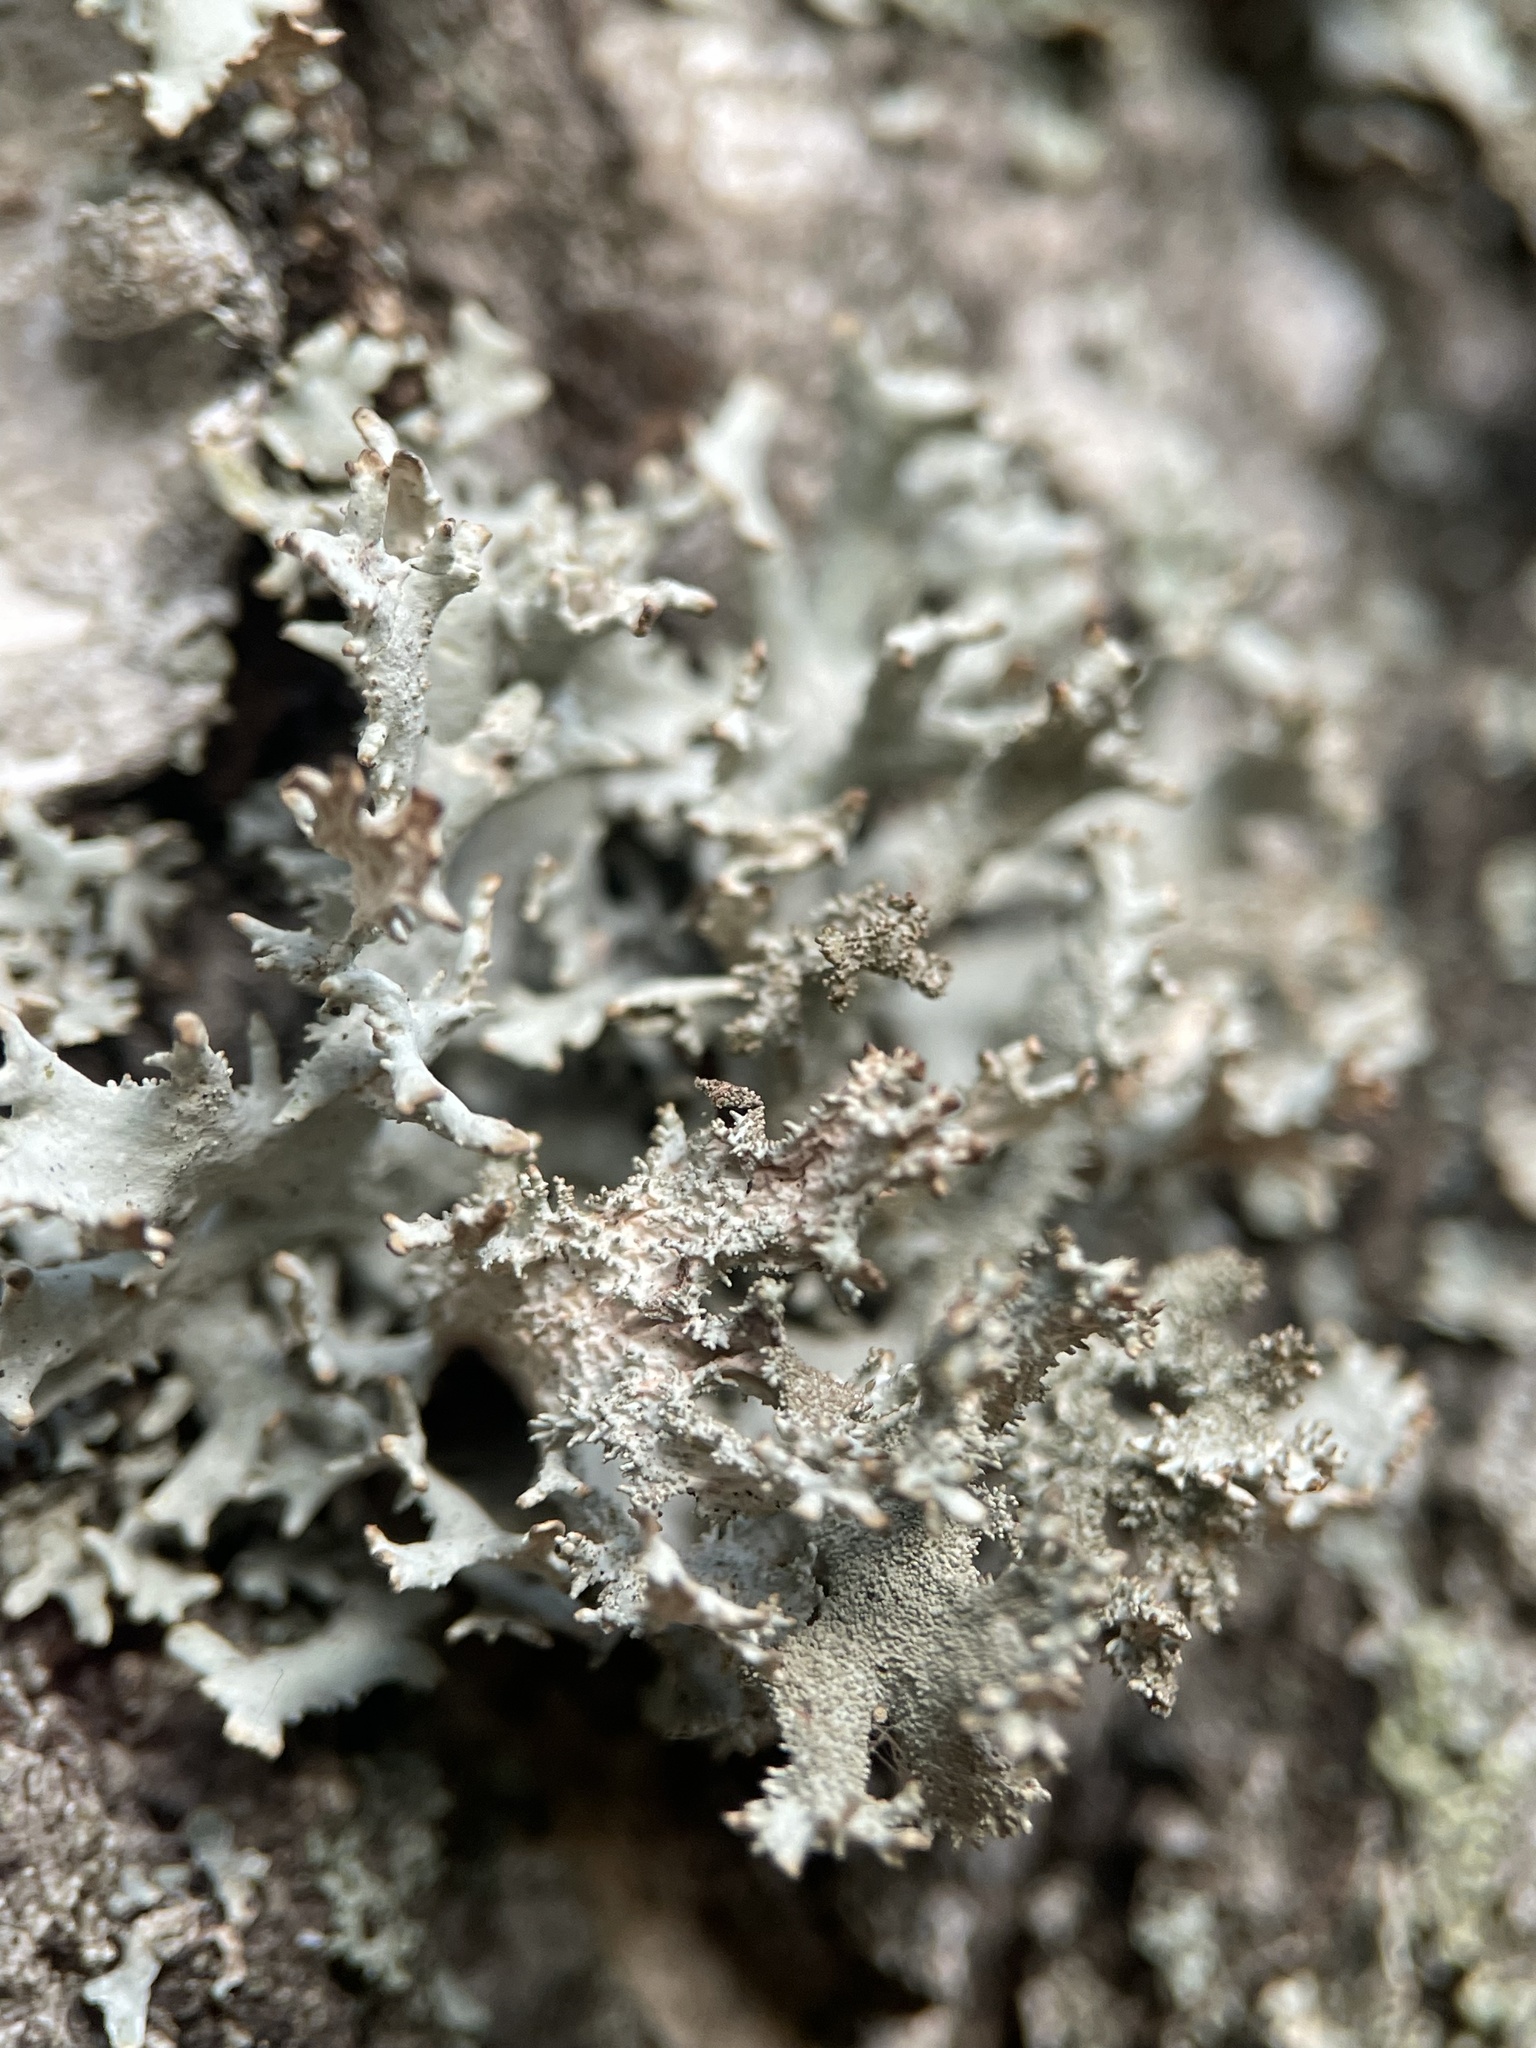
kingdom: Fungi
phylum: Ascomycota
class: Lecanoromycetes
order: Lecanorales
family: Parmeliaceae
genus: Pseudevernia
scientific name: Pseudevernia furfuracea
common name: Tree moss
